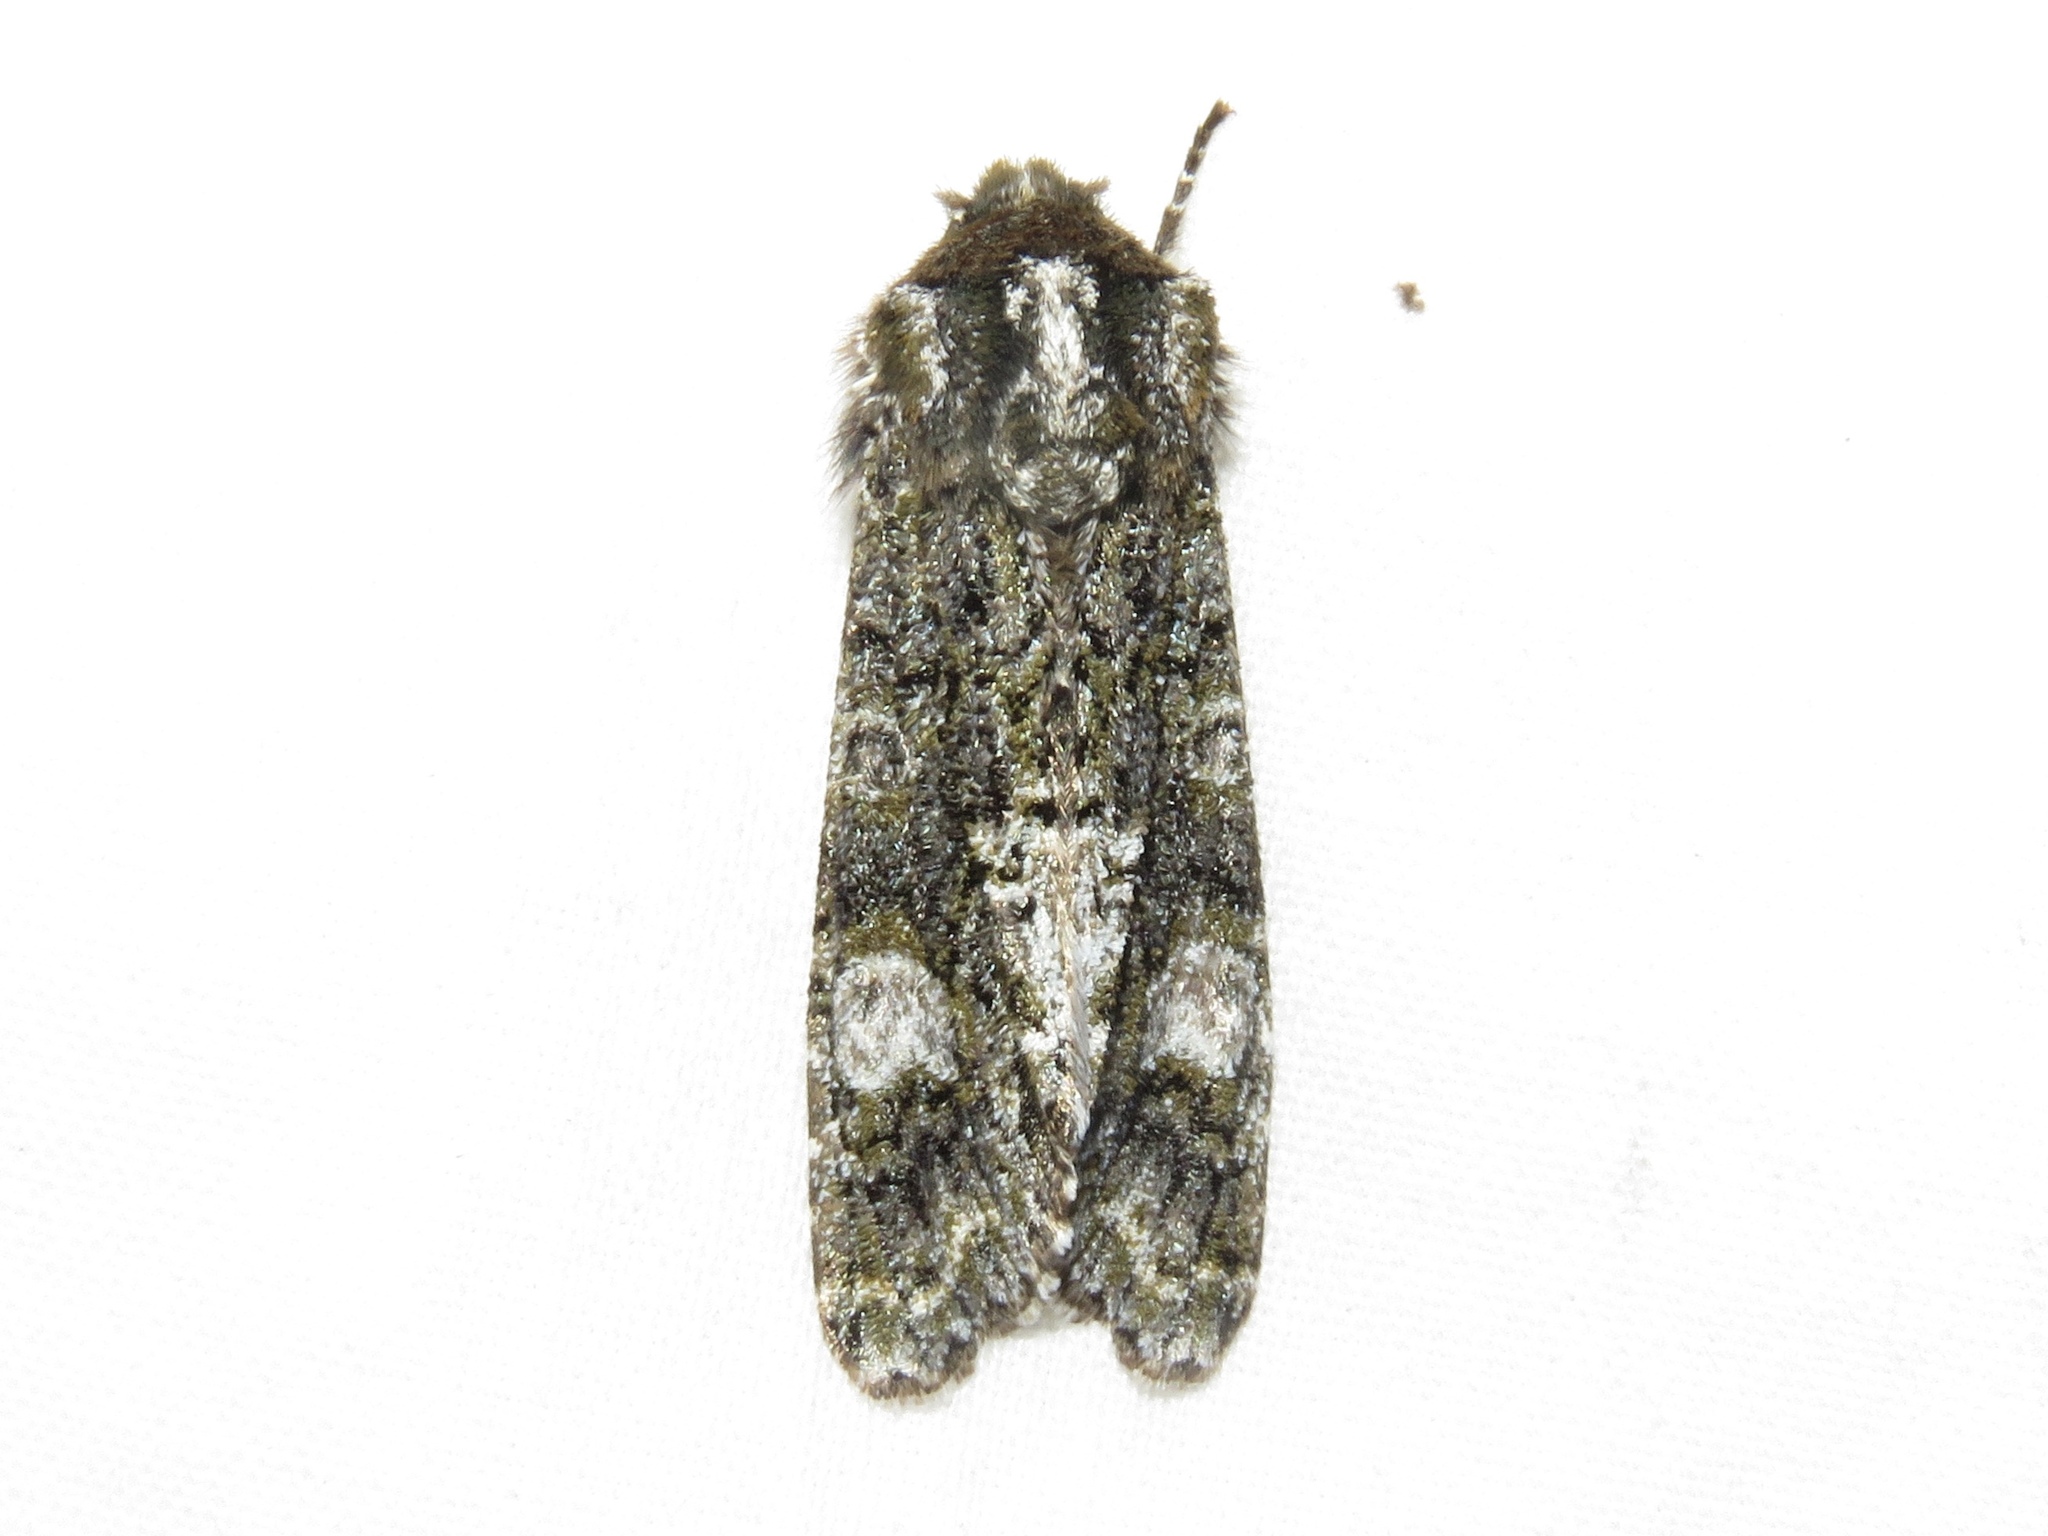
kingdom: Animalia
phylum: Arthropoda
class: Insecta
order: Lepidoptera
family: Noctuidae
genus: Psaphida
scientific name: Psaphida grotei
